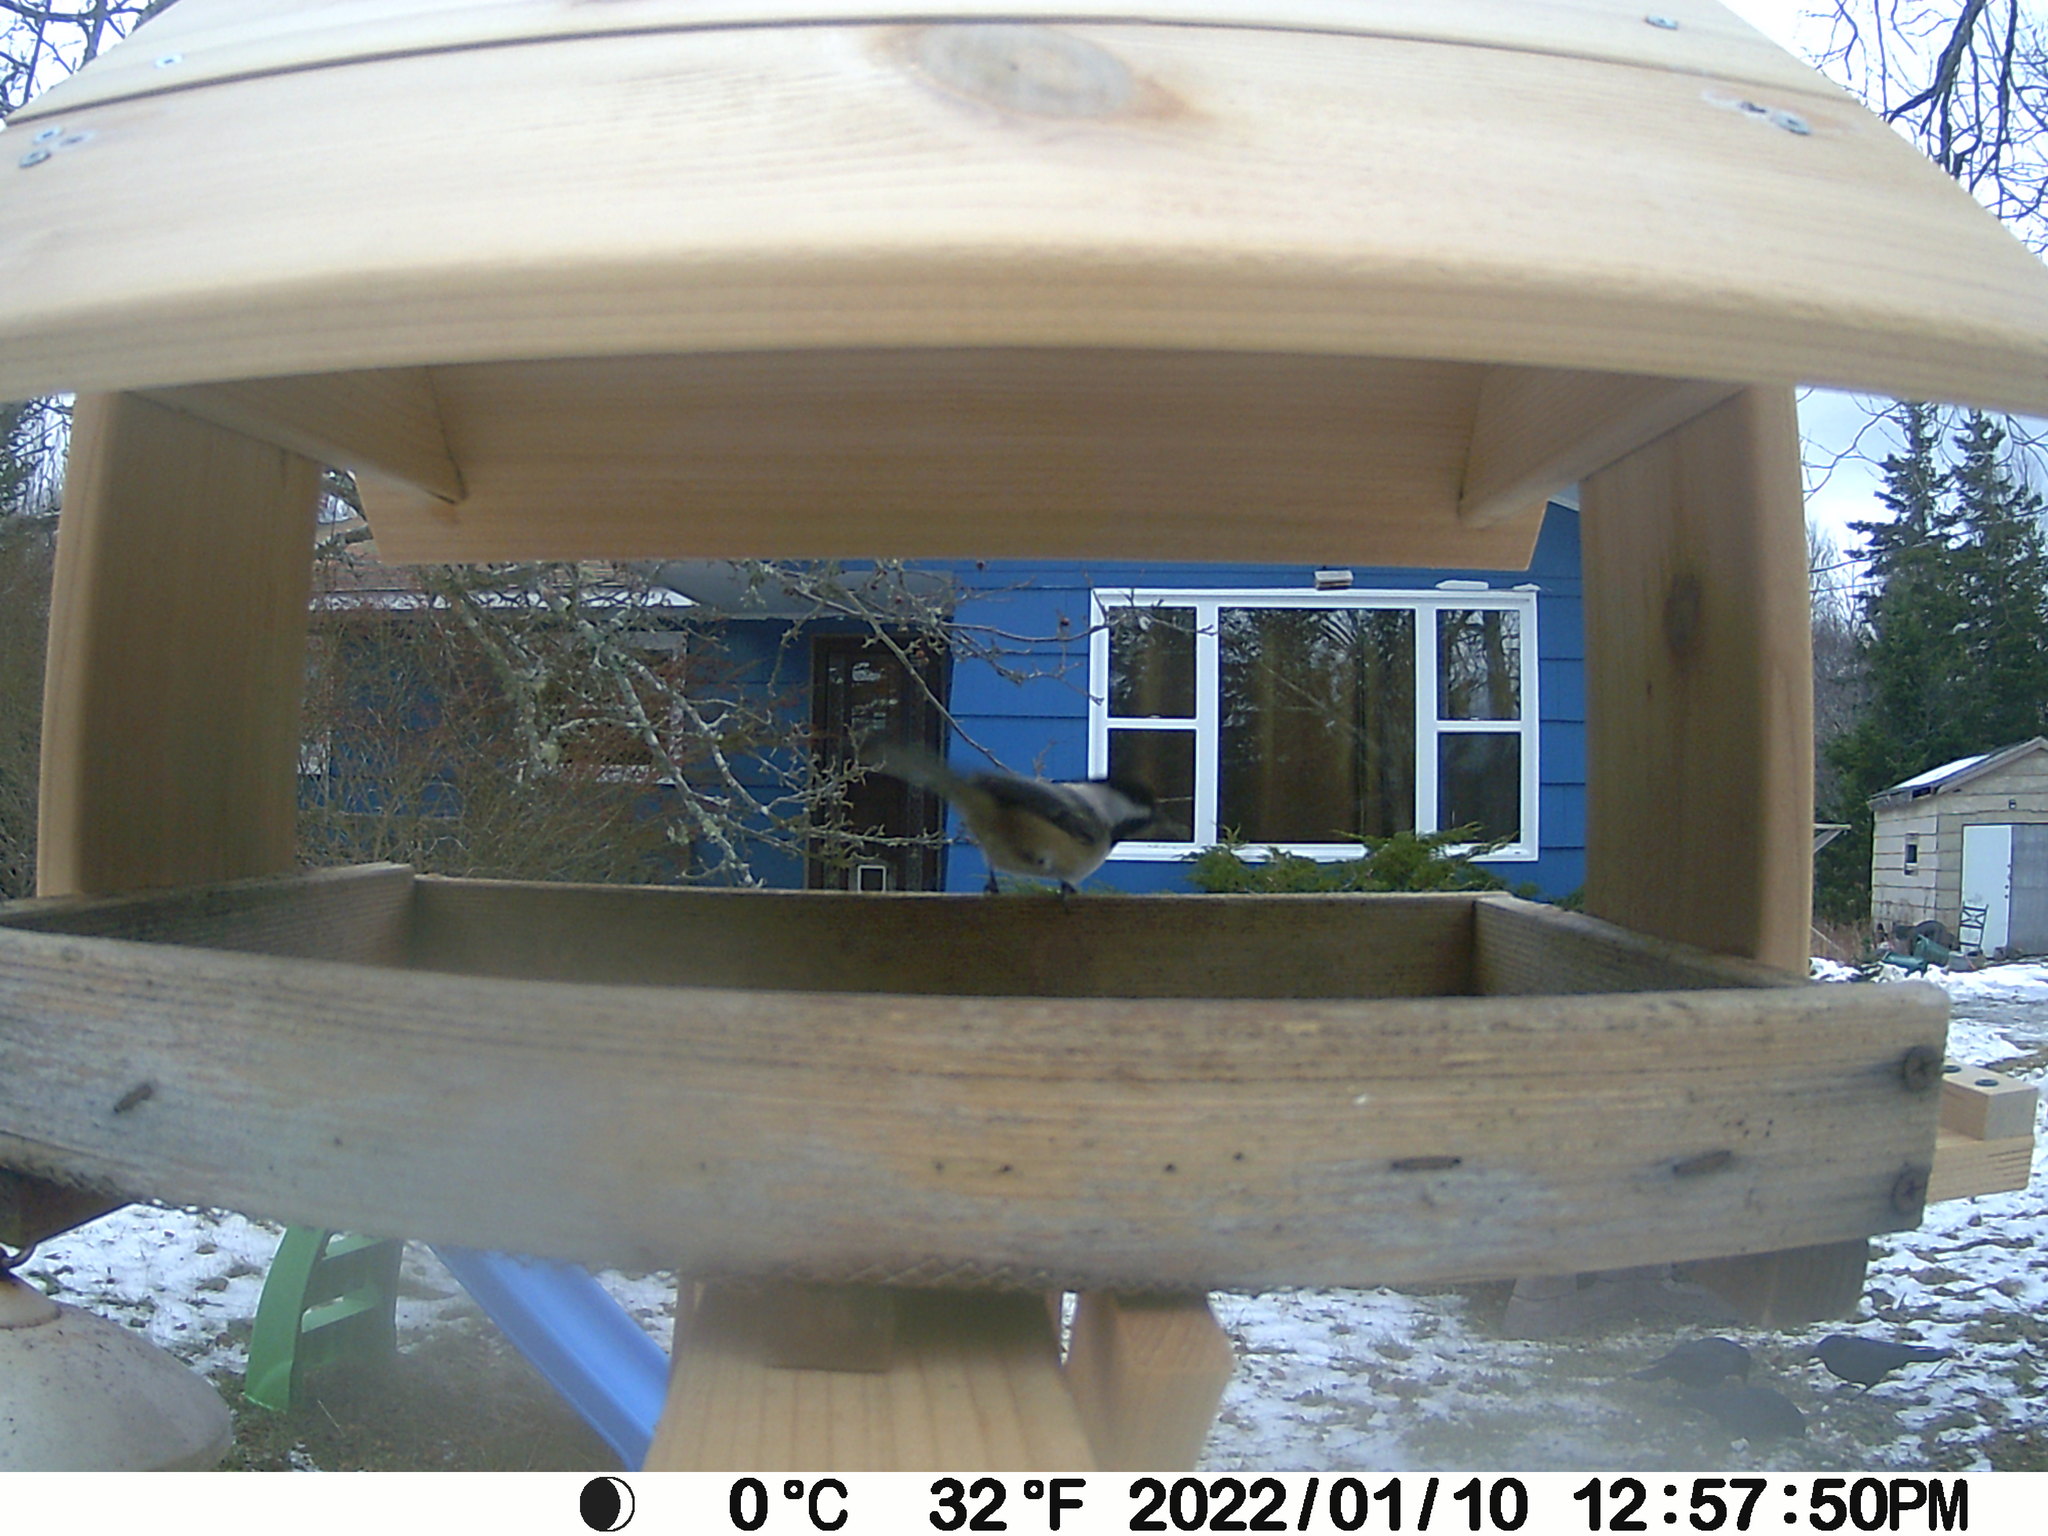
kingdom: Animalia
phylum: Chordata
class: Aves
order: Passeriformes
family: Corvidae
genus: Corvus
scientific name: Corvus brachyrhynchos
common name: American crow
